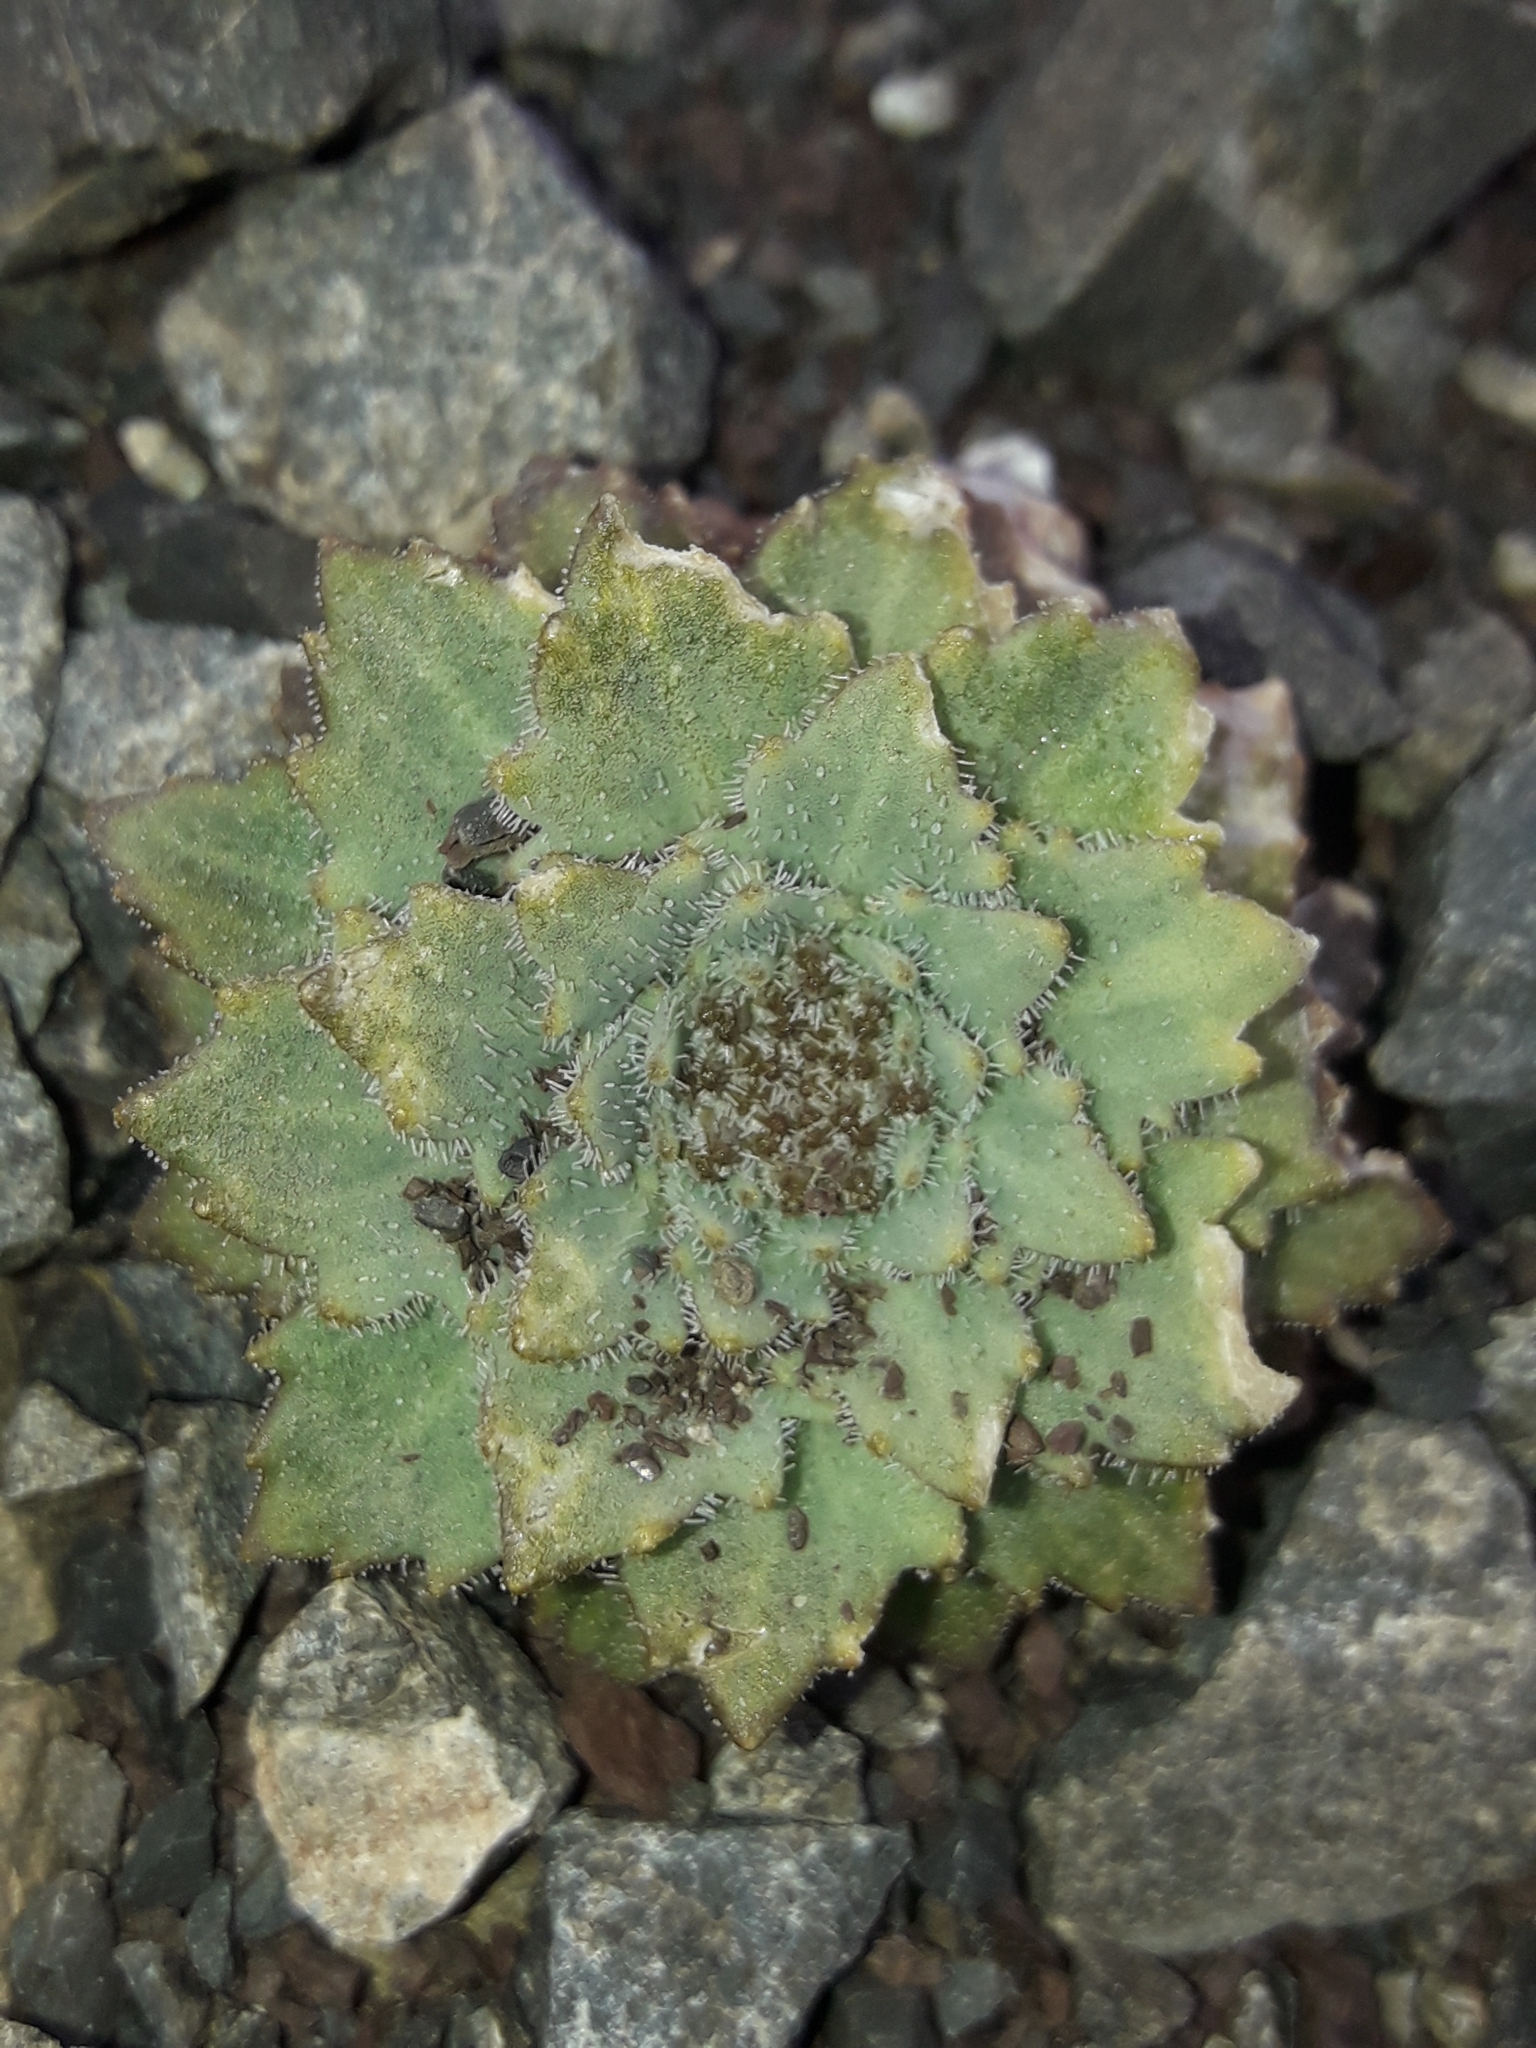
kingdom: Plantae
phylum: Tracheophyta
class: Magnoliopsida
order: Brassicales
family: Brassicaceae
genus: Notothlaspi
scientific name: Notothlaspi rosulatum
